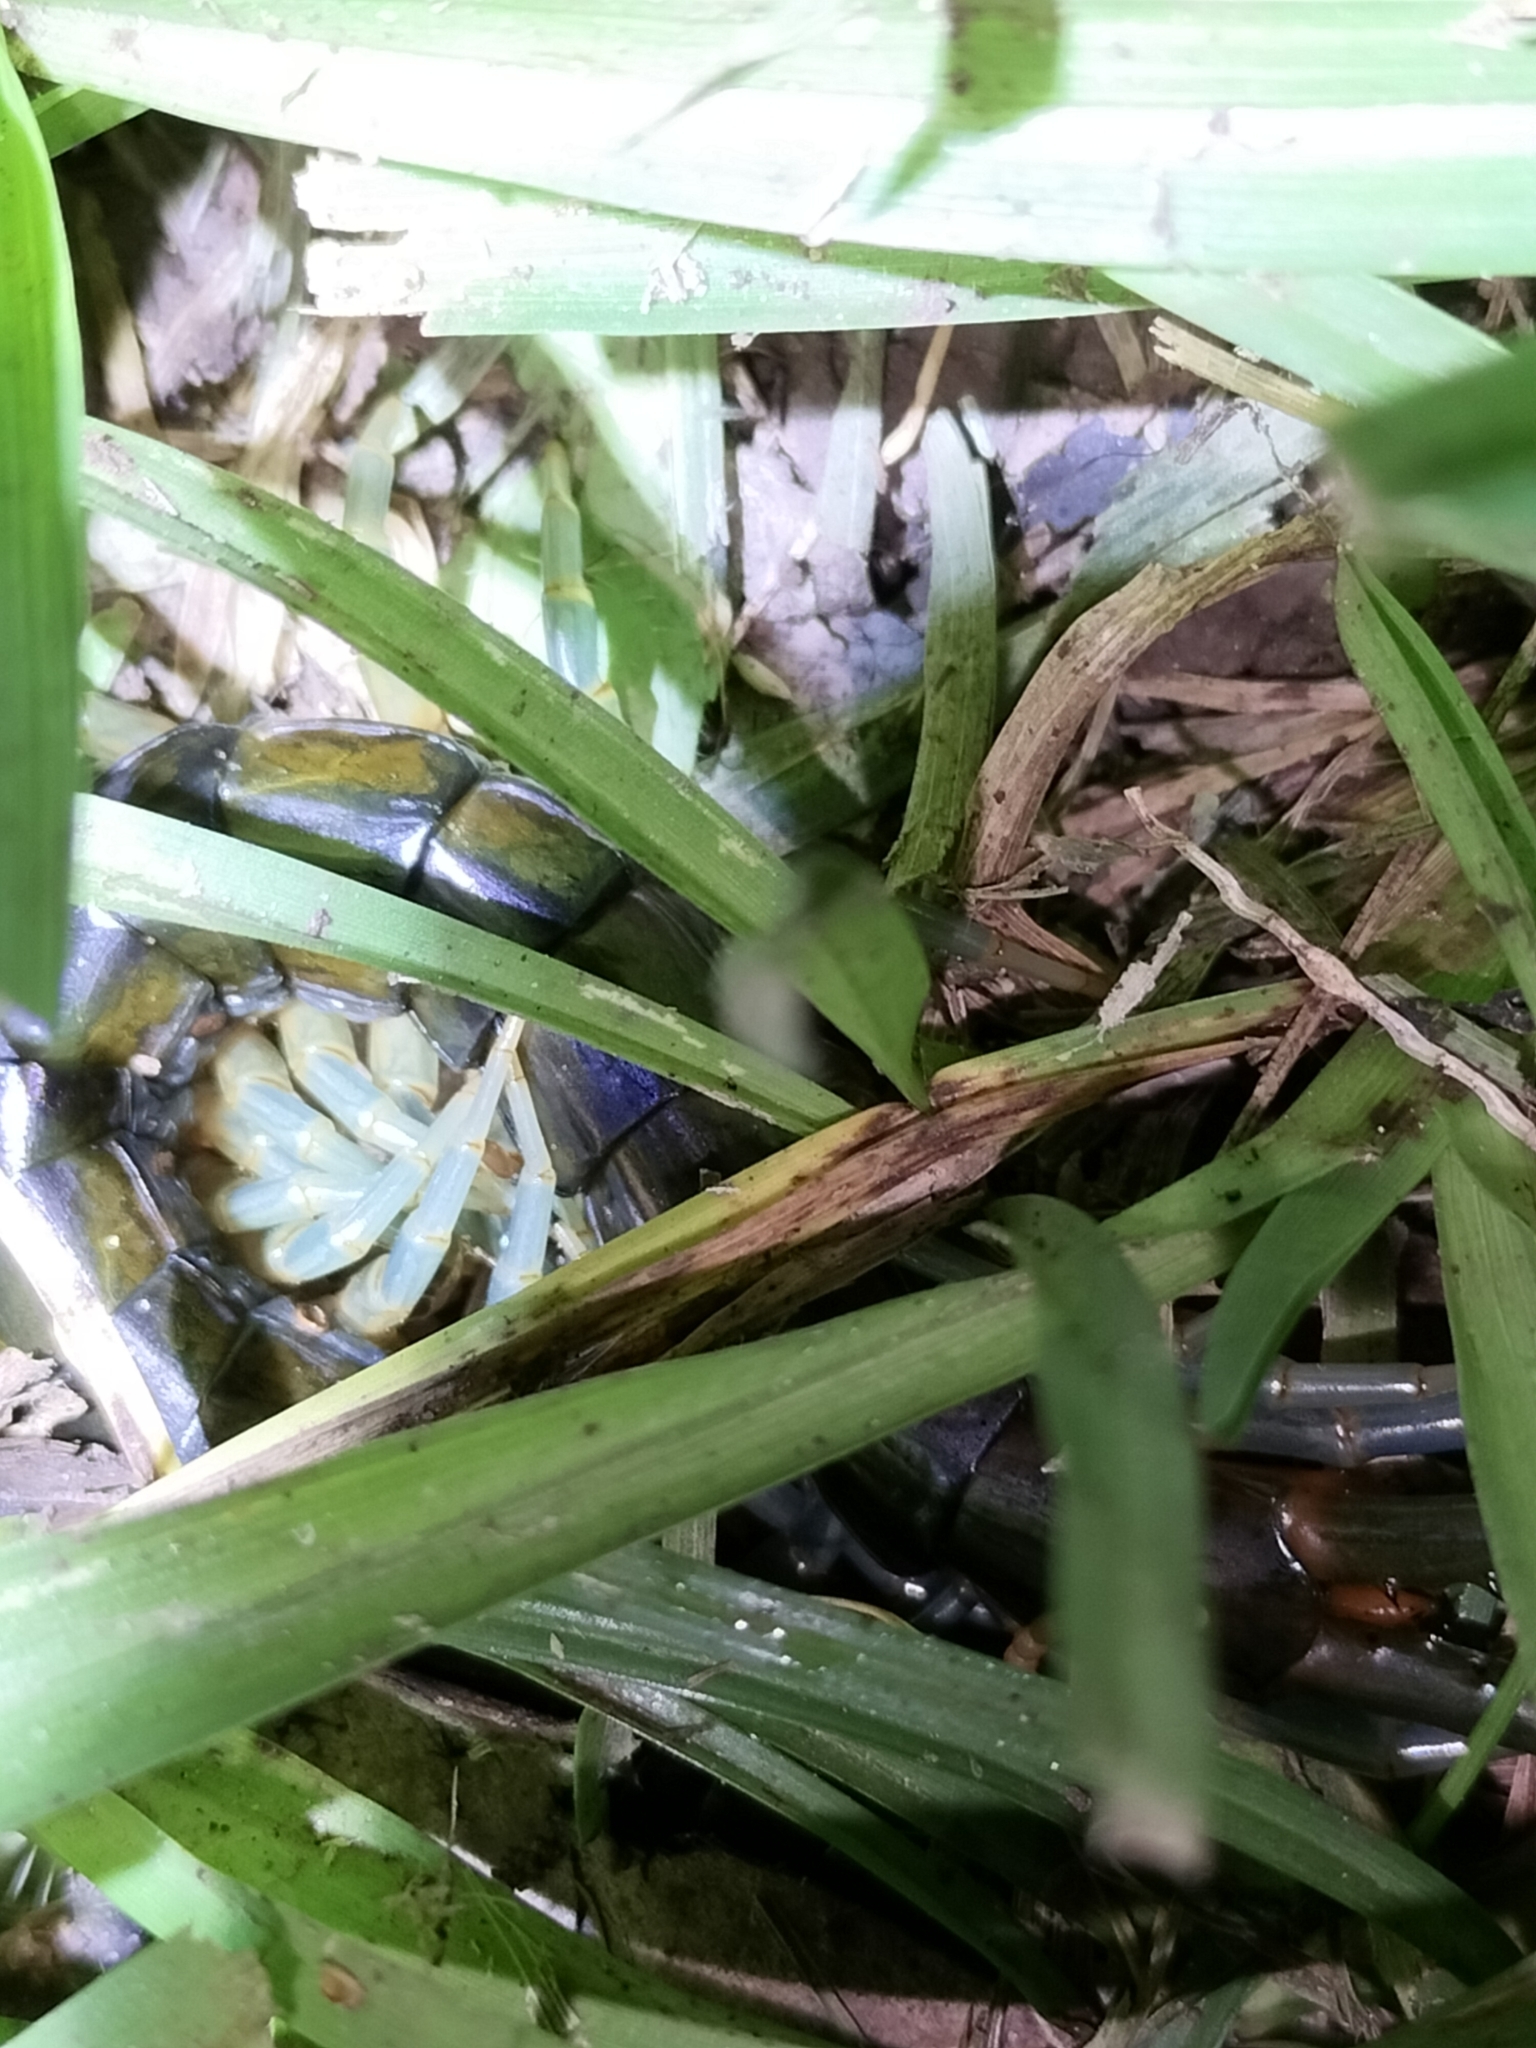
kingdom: Animalia
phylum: Arthropoda
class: Chilopoda
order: Scolopendromorpha
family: Scolopendridae
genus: Ethmostigmus
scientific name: Ethmostigmus rubripes
